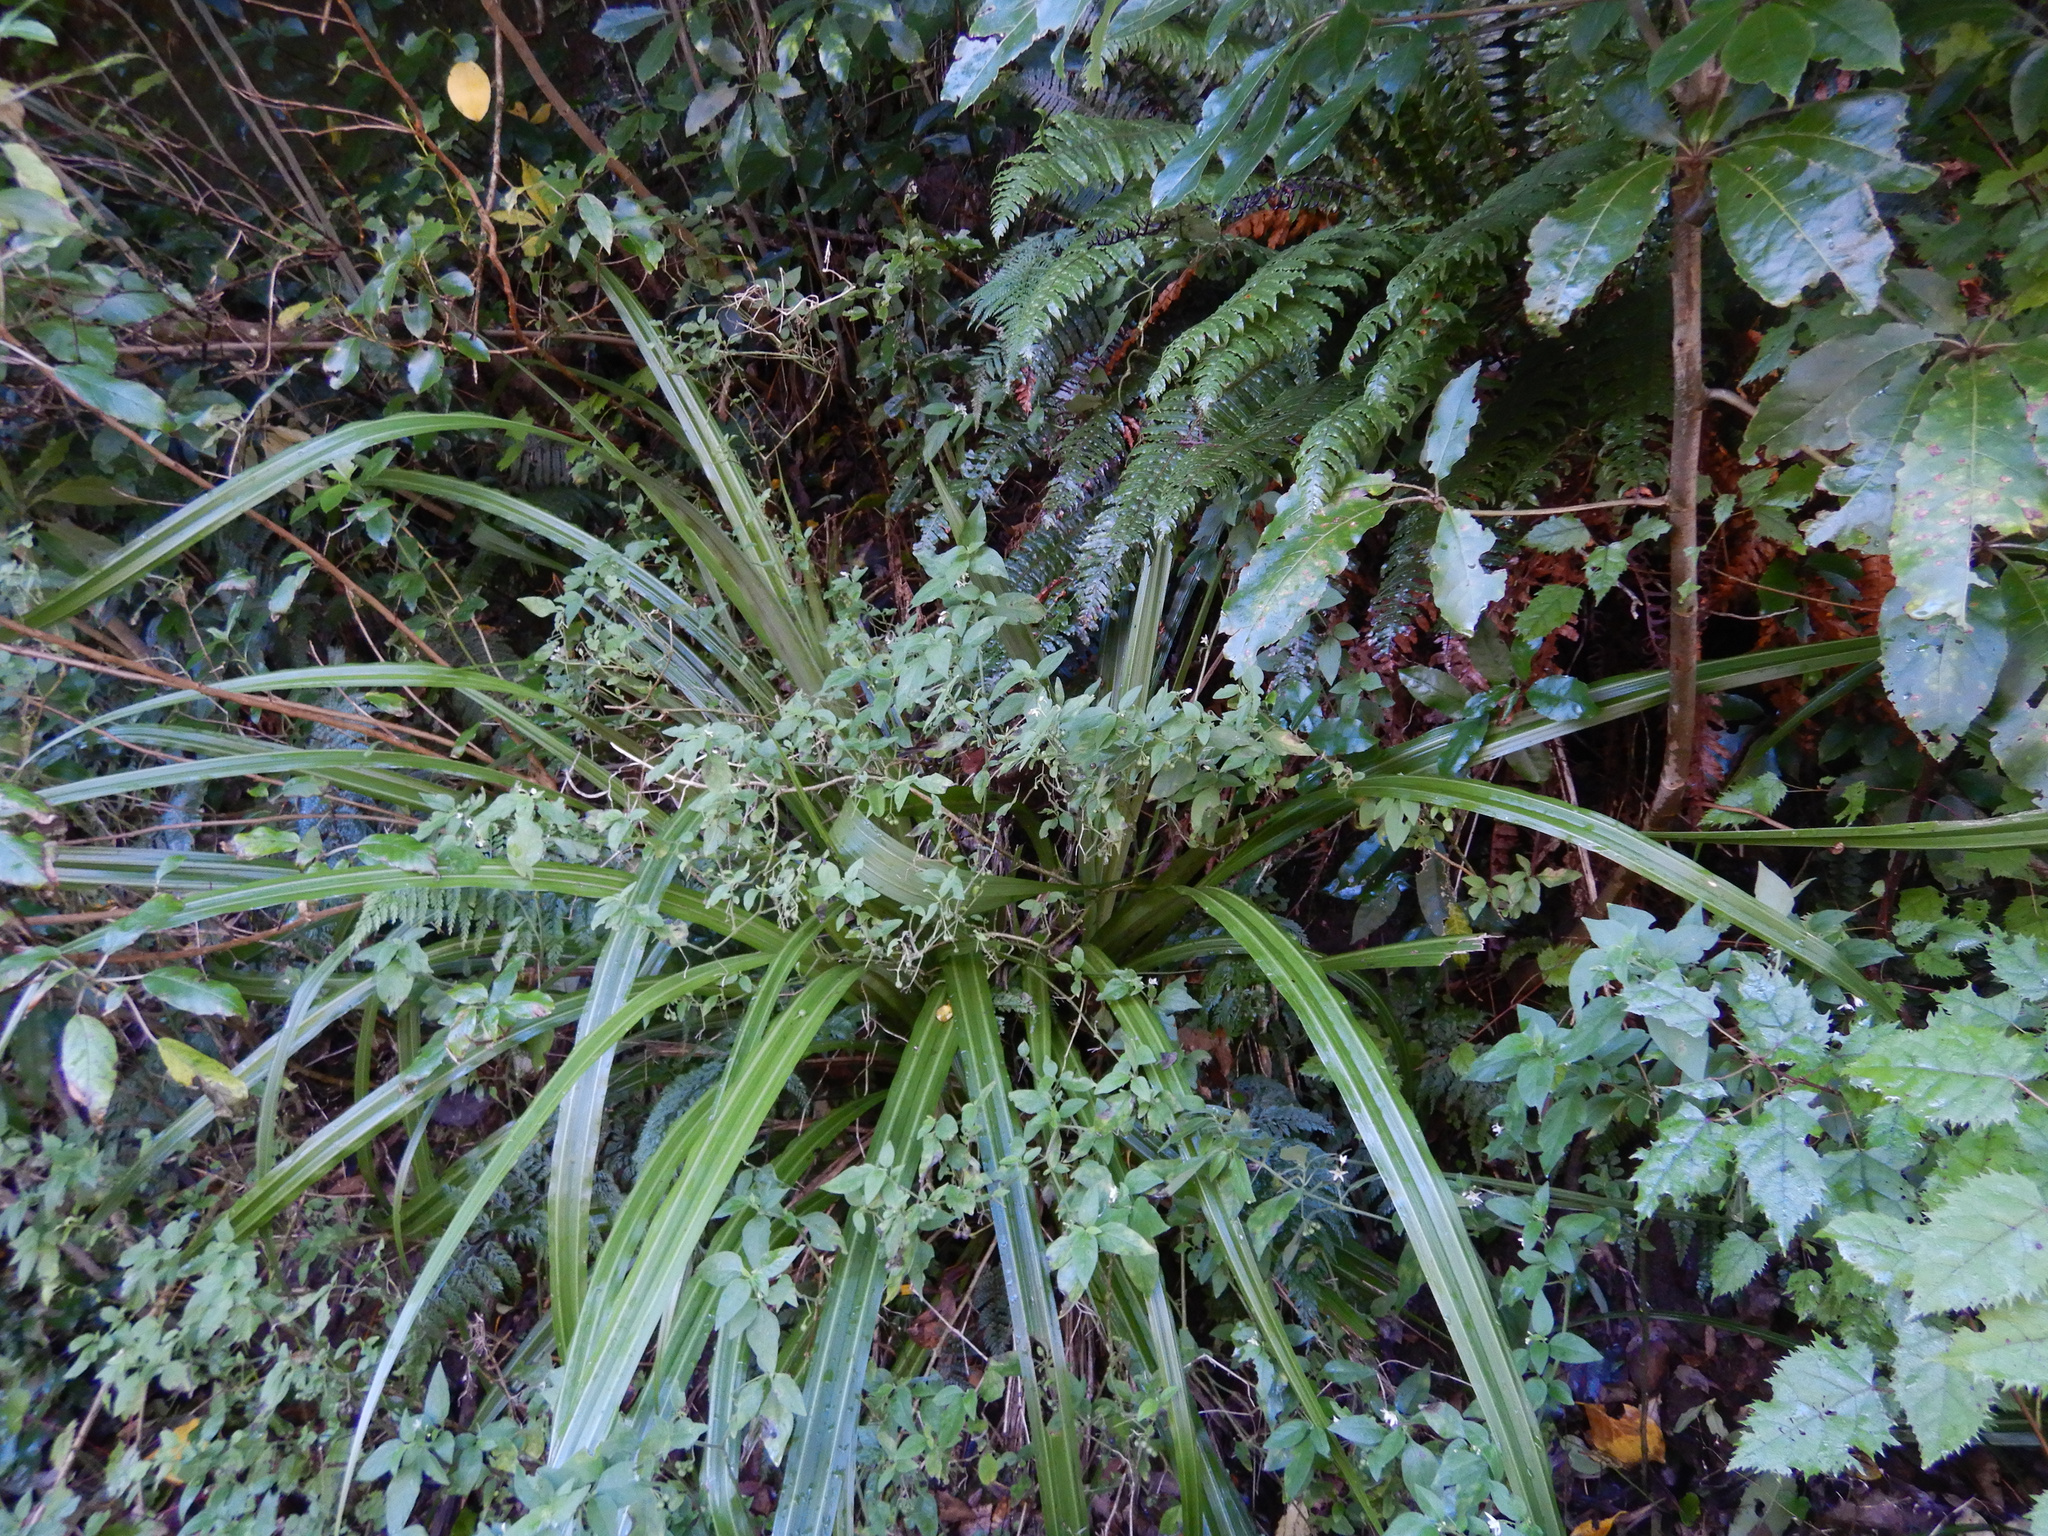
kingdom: Plantae
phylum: Tracheophyta
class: Liliopsida
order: Asparagales
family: Asteliaceae
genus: Astelia
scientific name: Astelia fragrans
